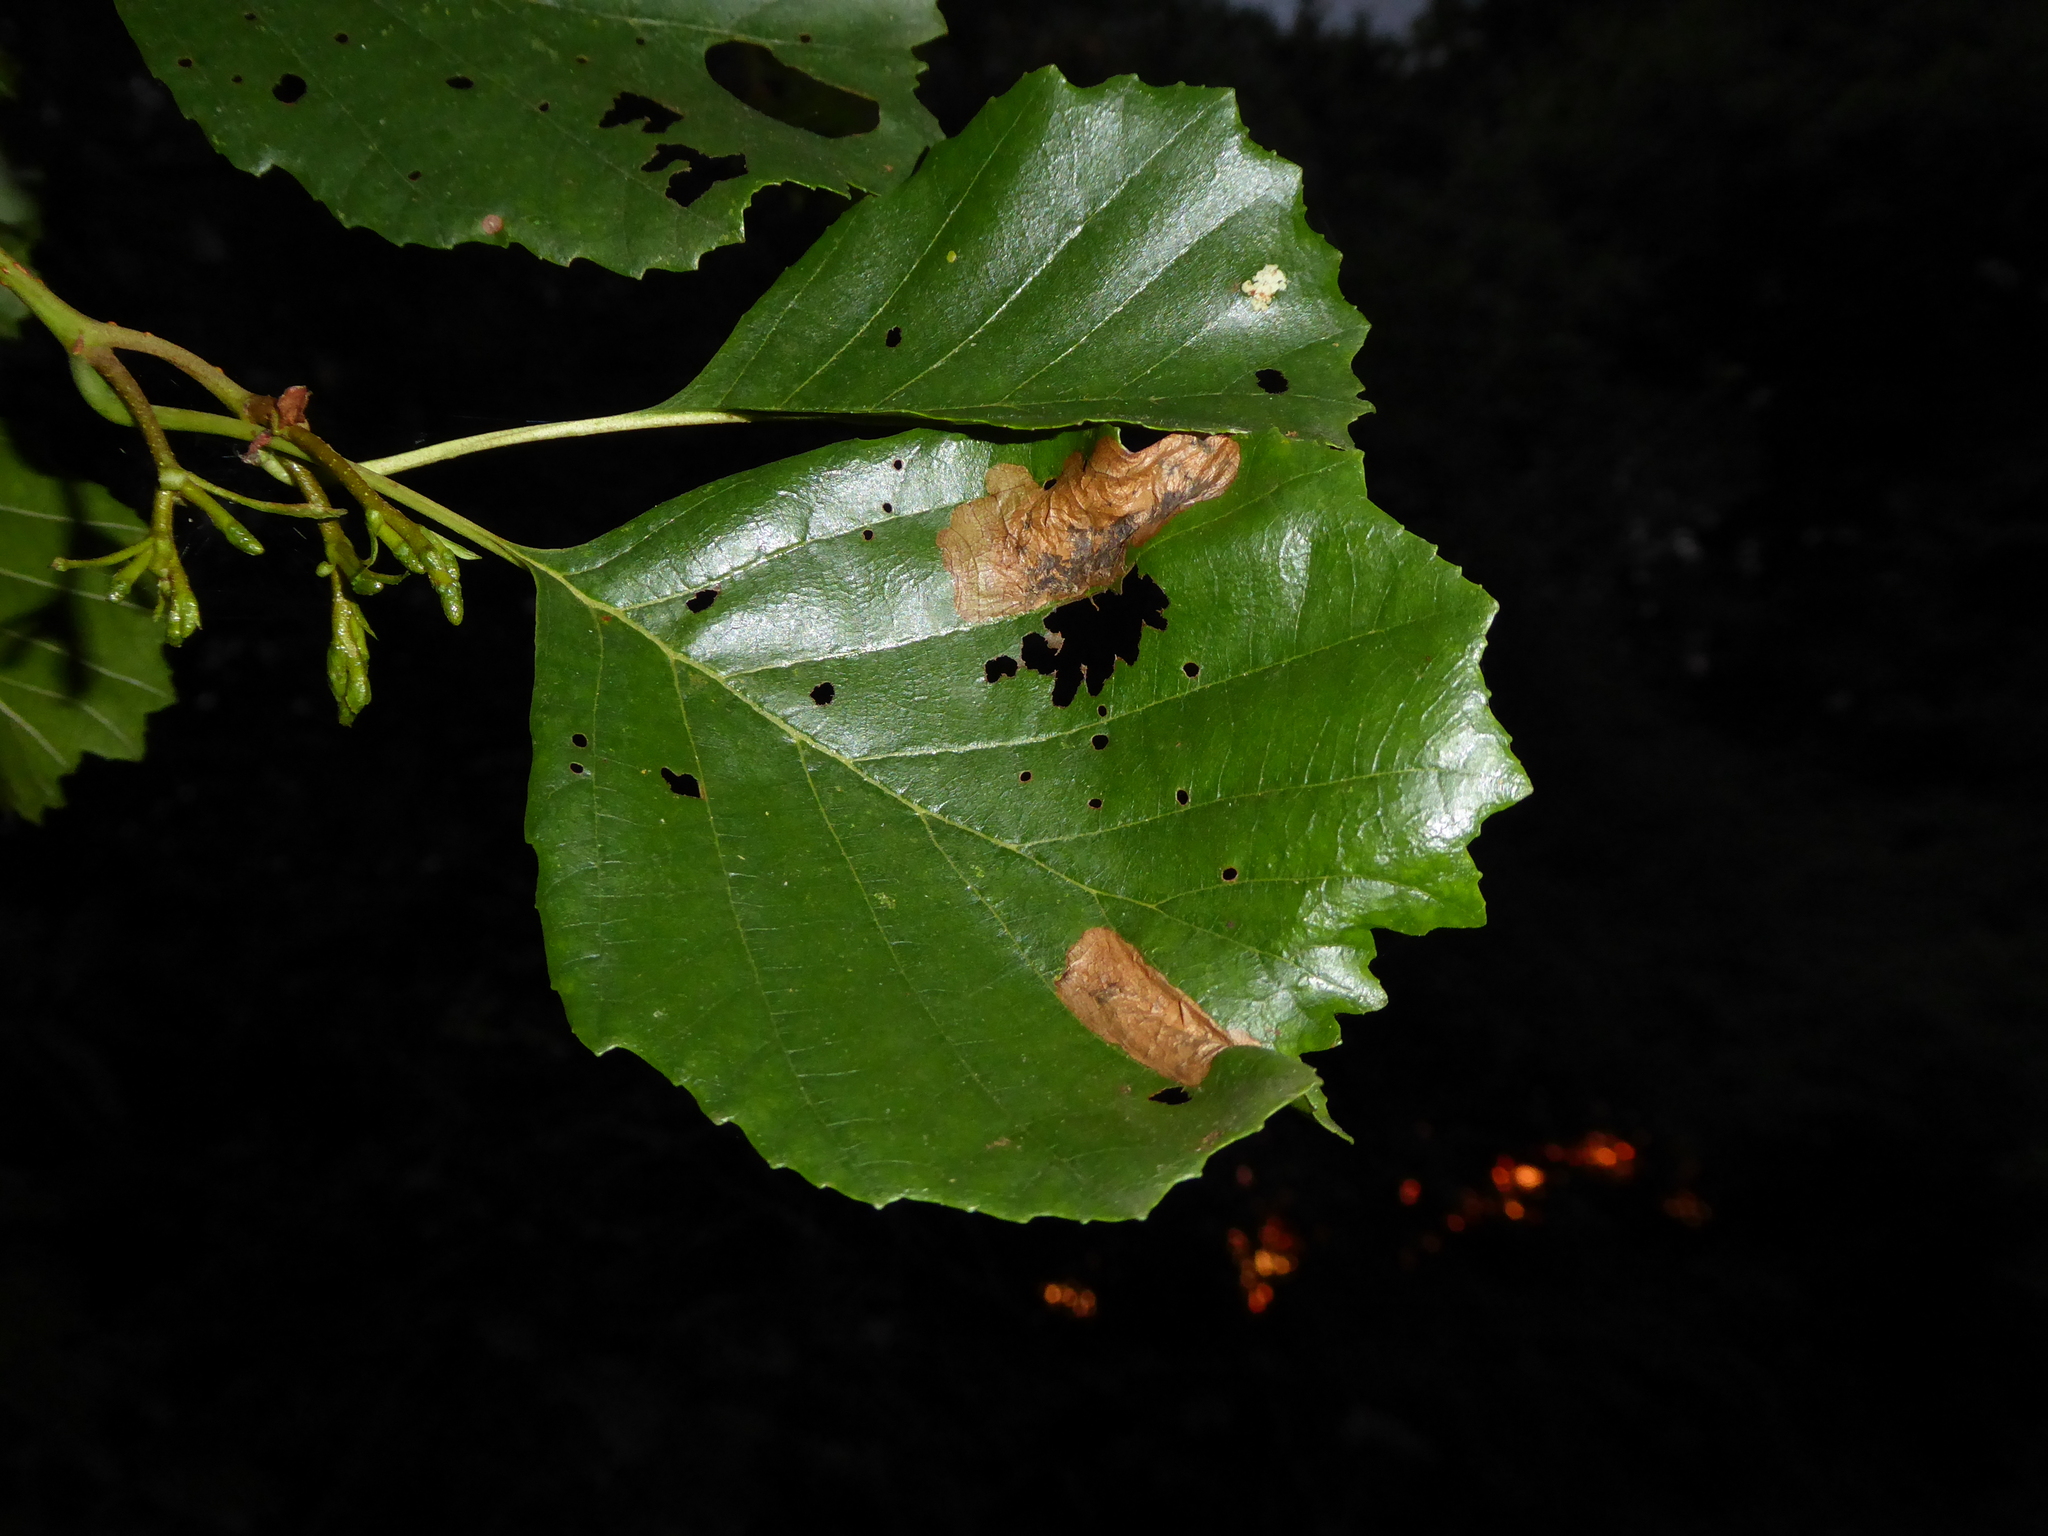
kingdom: Plantae
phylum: Tracheophyta
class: Magnoliopsida
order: Fagales
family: Betulaceae
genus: Alnus
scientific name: Alnus glutinosa
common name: Black alder
